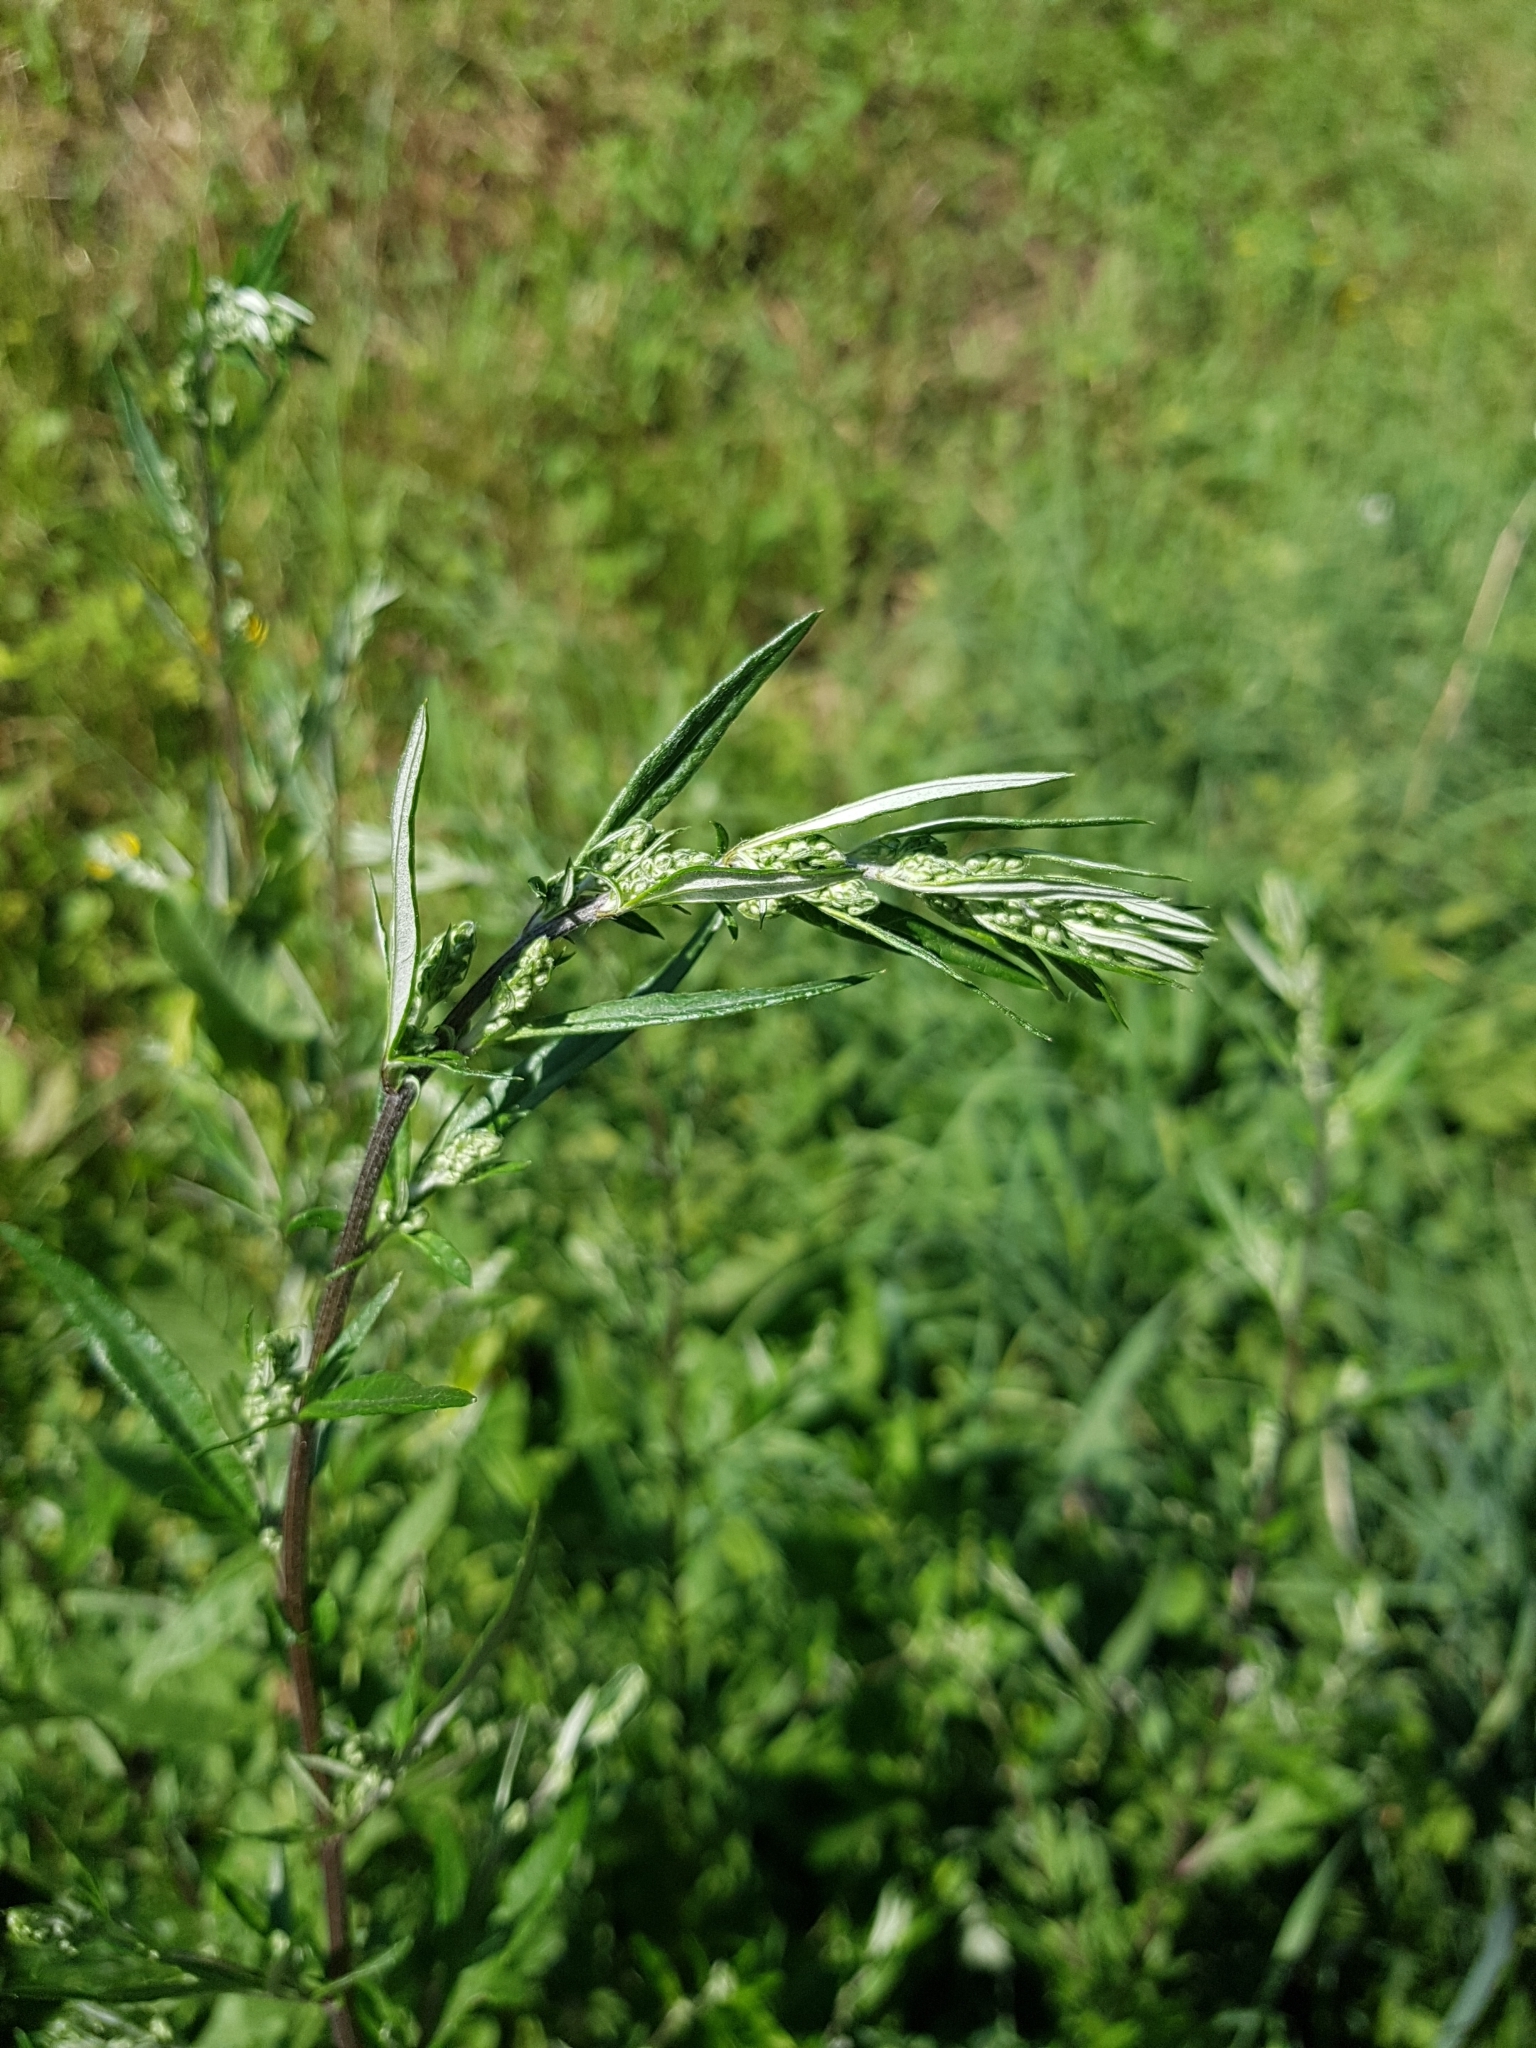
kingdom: Plantae
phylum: Tracheophyta
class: Magnoliopsida
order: Asterales
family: Asteraceae
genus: Artemisia
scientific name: Artemisia vulgaris
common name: Mugwort
